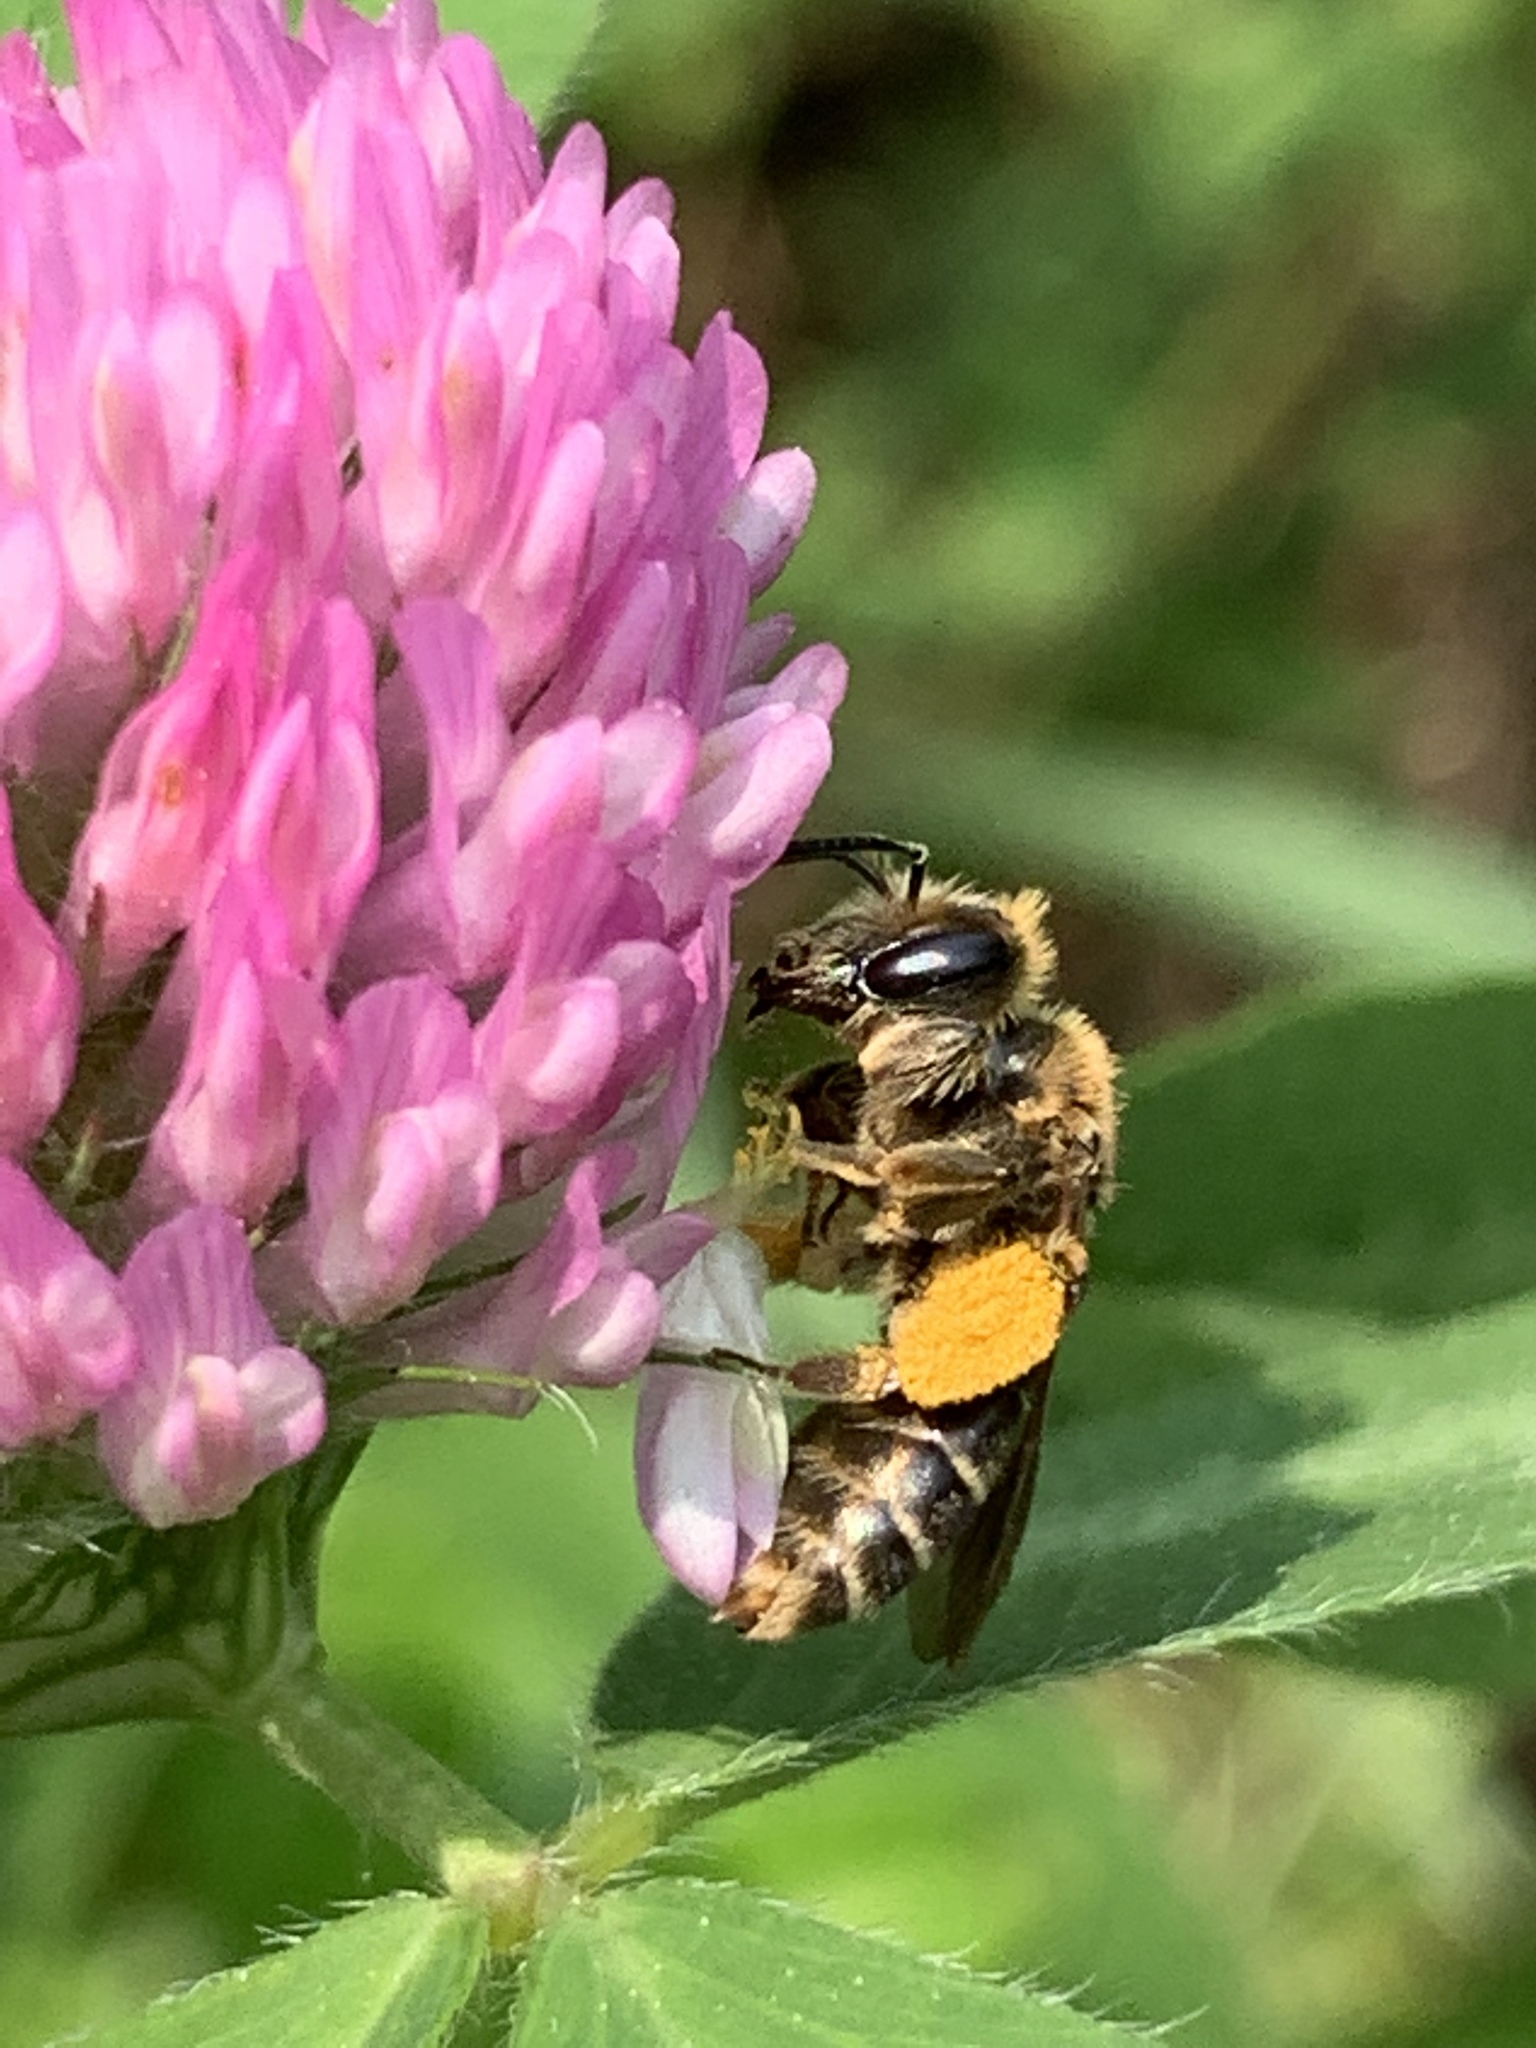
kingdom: Animalia
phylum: Arthropoda
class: Insecta
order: Hymenoptera
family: Andrenidae
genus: Andrena
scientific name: Andrena wilkella
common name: Wilke's mining bee
